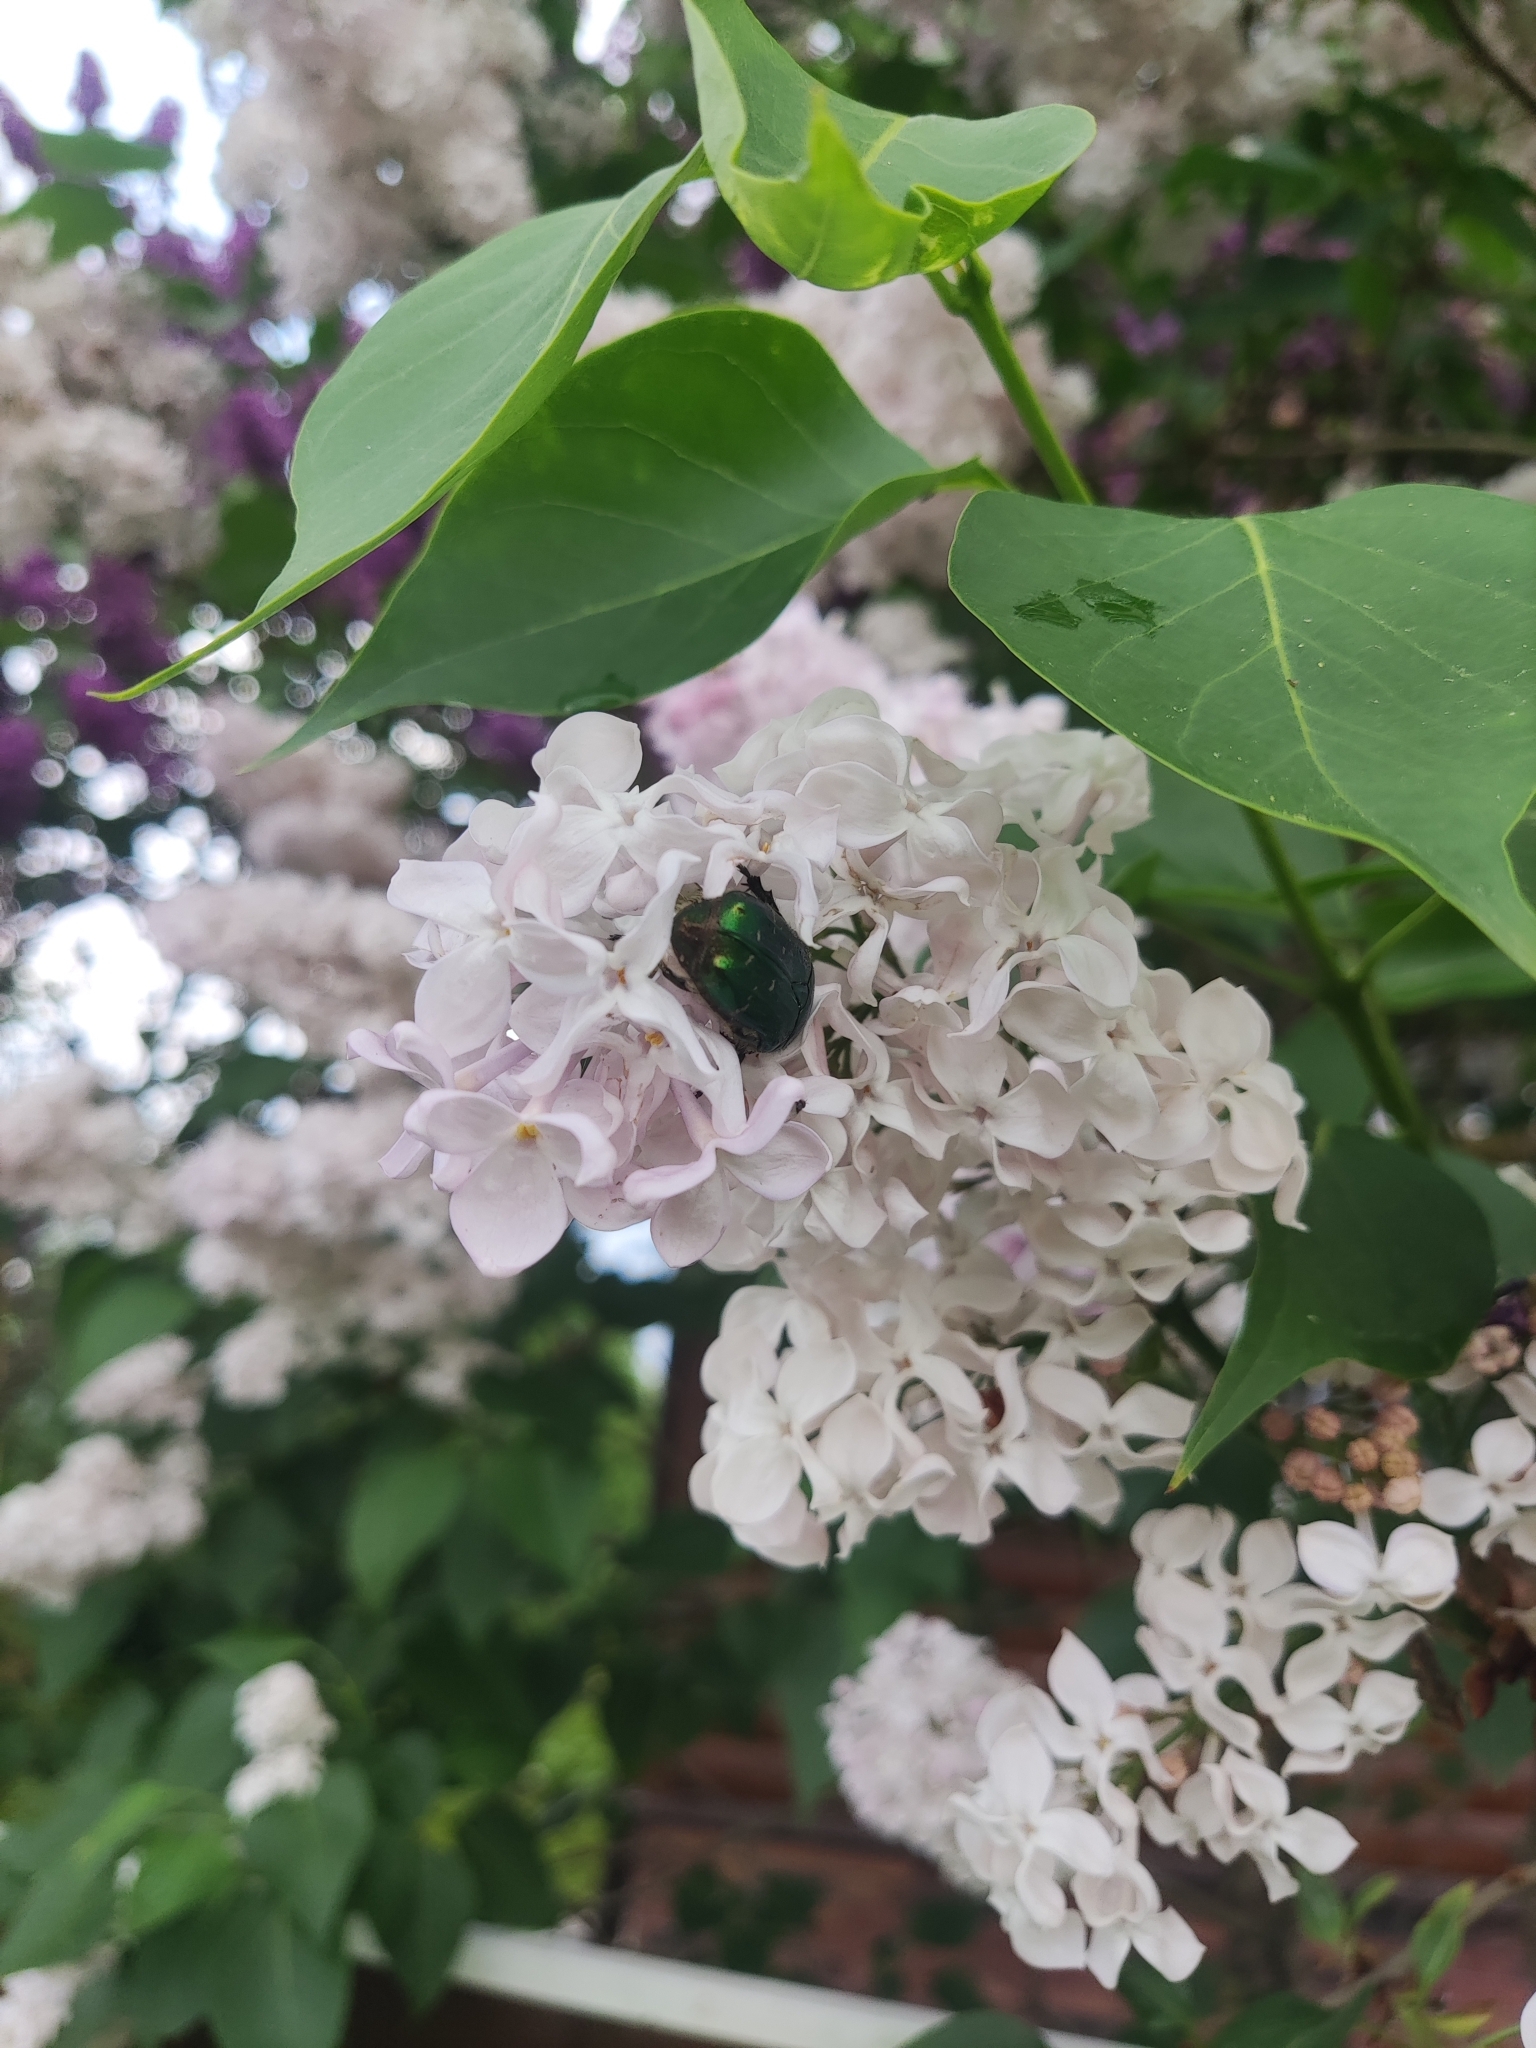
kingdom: Animalia
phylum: Arthropoda
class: Insecta
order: Coleoptera
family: Scarabaeidae
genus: Cetonia
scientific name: Cetonia aurata
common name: Rose chafer
